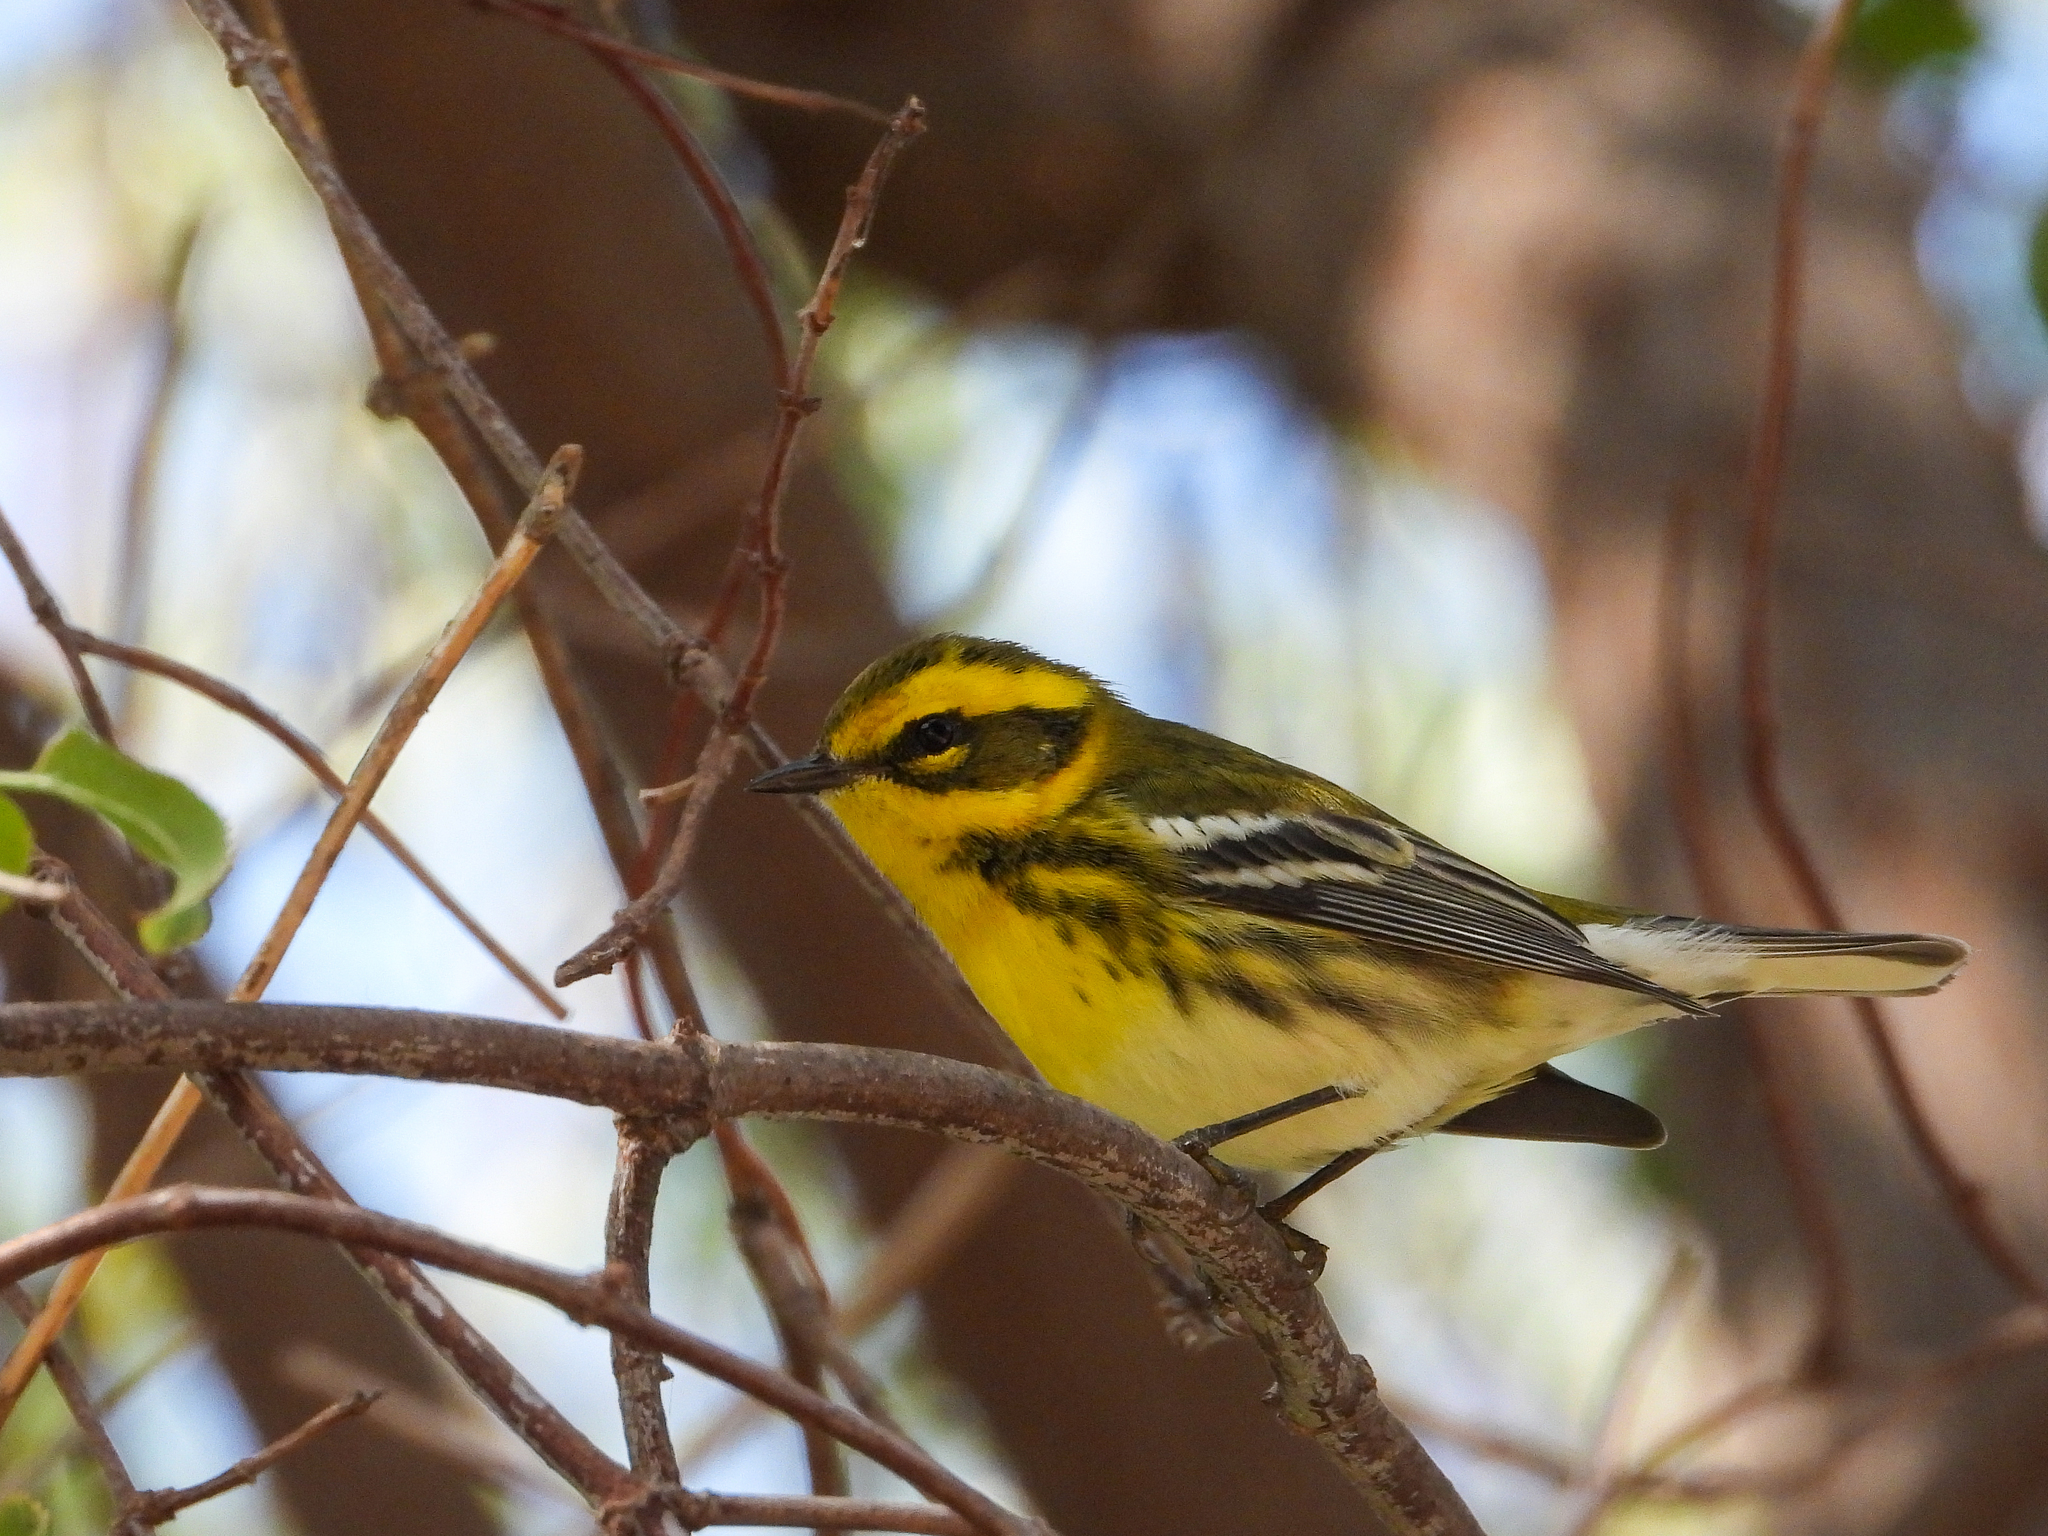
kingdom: Animalia
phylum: Chordata
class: Aves
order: Passeriformes
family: Parulidae
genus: Setophaga
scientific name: Setophaga townsendi
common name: Townsend's warbler
